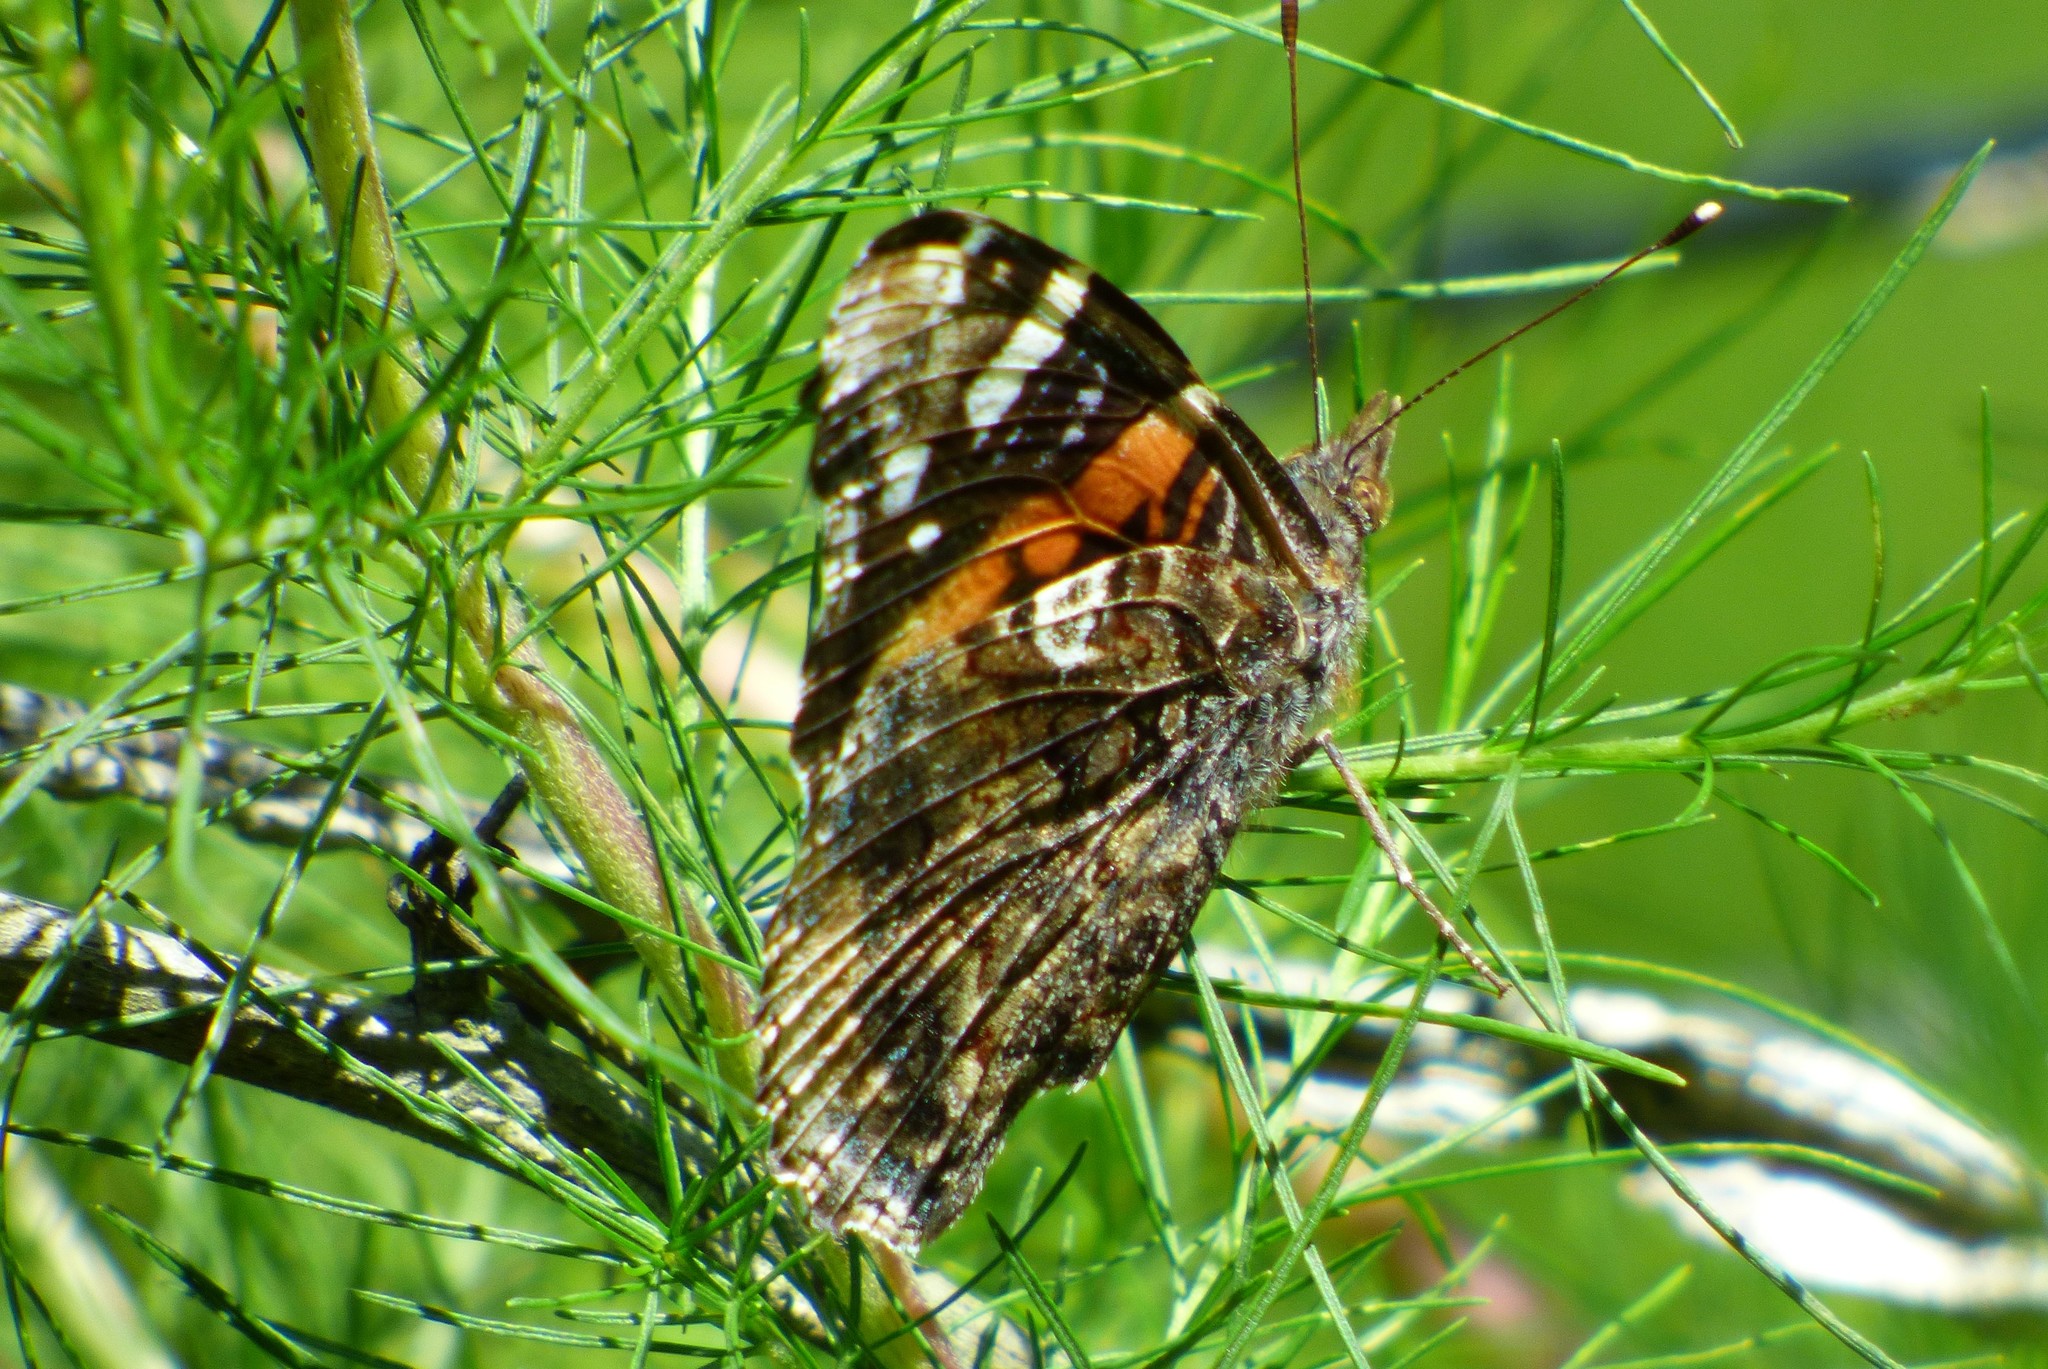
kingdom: Animalia
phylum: Arthropoda
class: Insecta
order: Lepidoptera
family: Nymphalidae
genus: Vanessa
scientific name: Vanessa atalanta
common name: Red admiral
